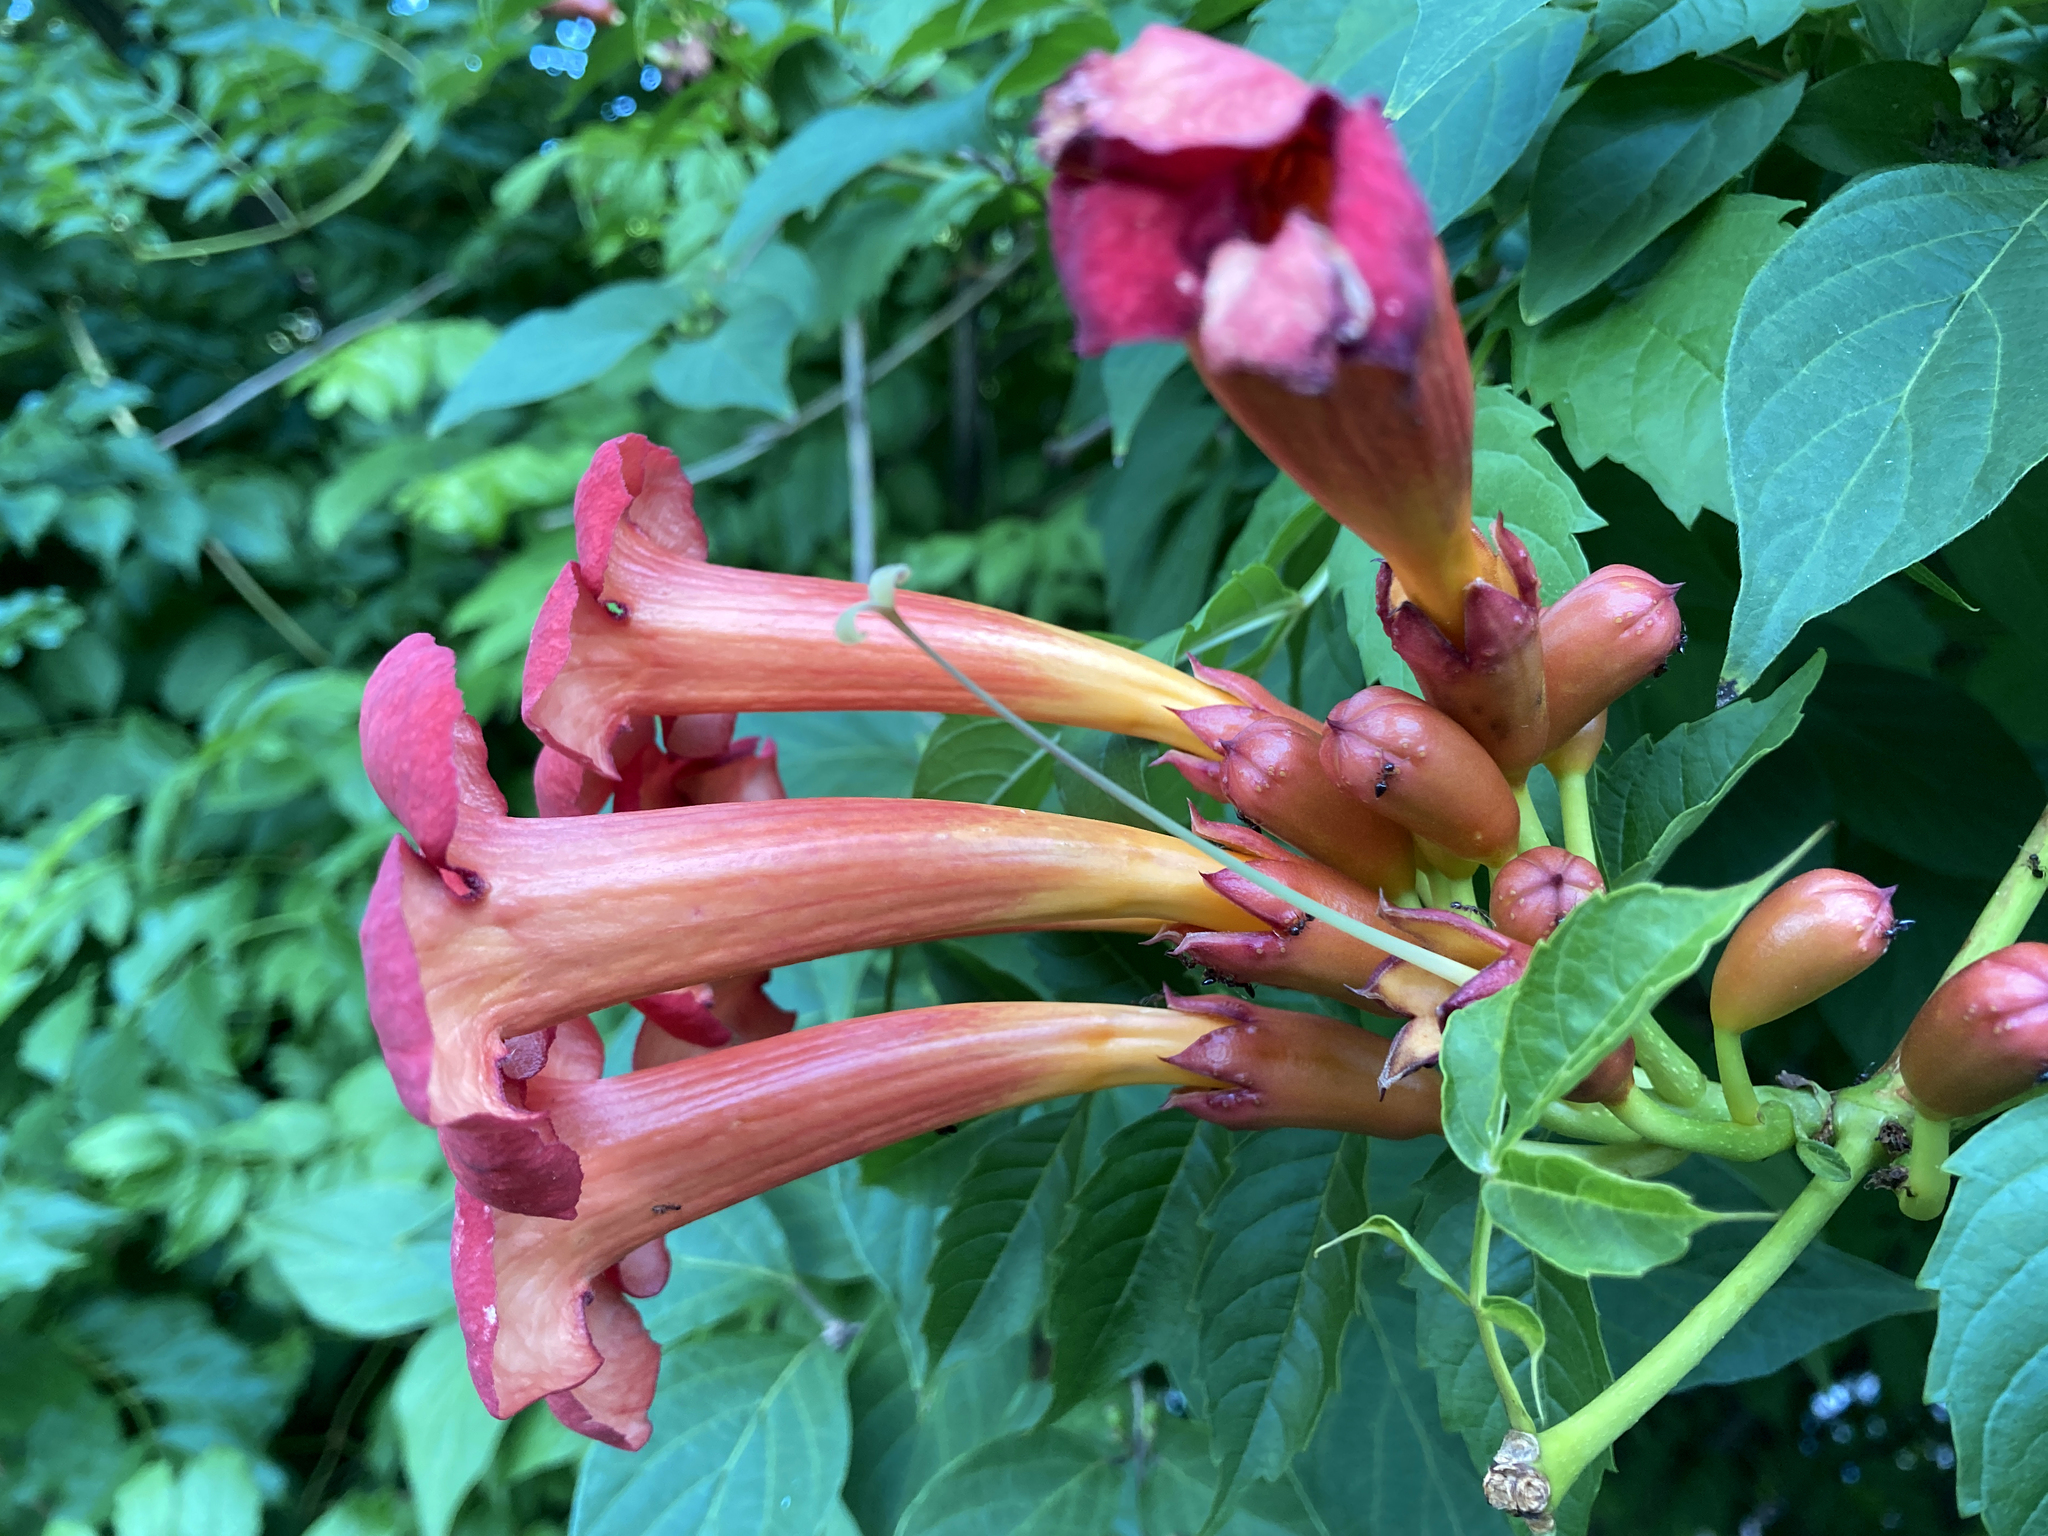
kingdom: Plantae
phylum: Tracheophyta
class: Magnoliopsida
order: Lamiales
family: Bignoniaceae
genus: Campsis
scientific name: Campsis radicans
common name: Trumpet-creeper
